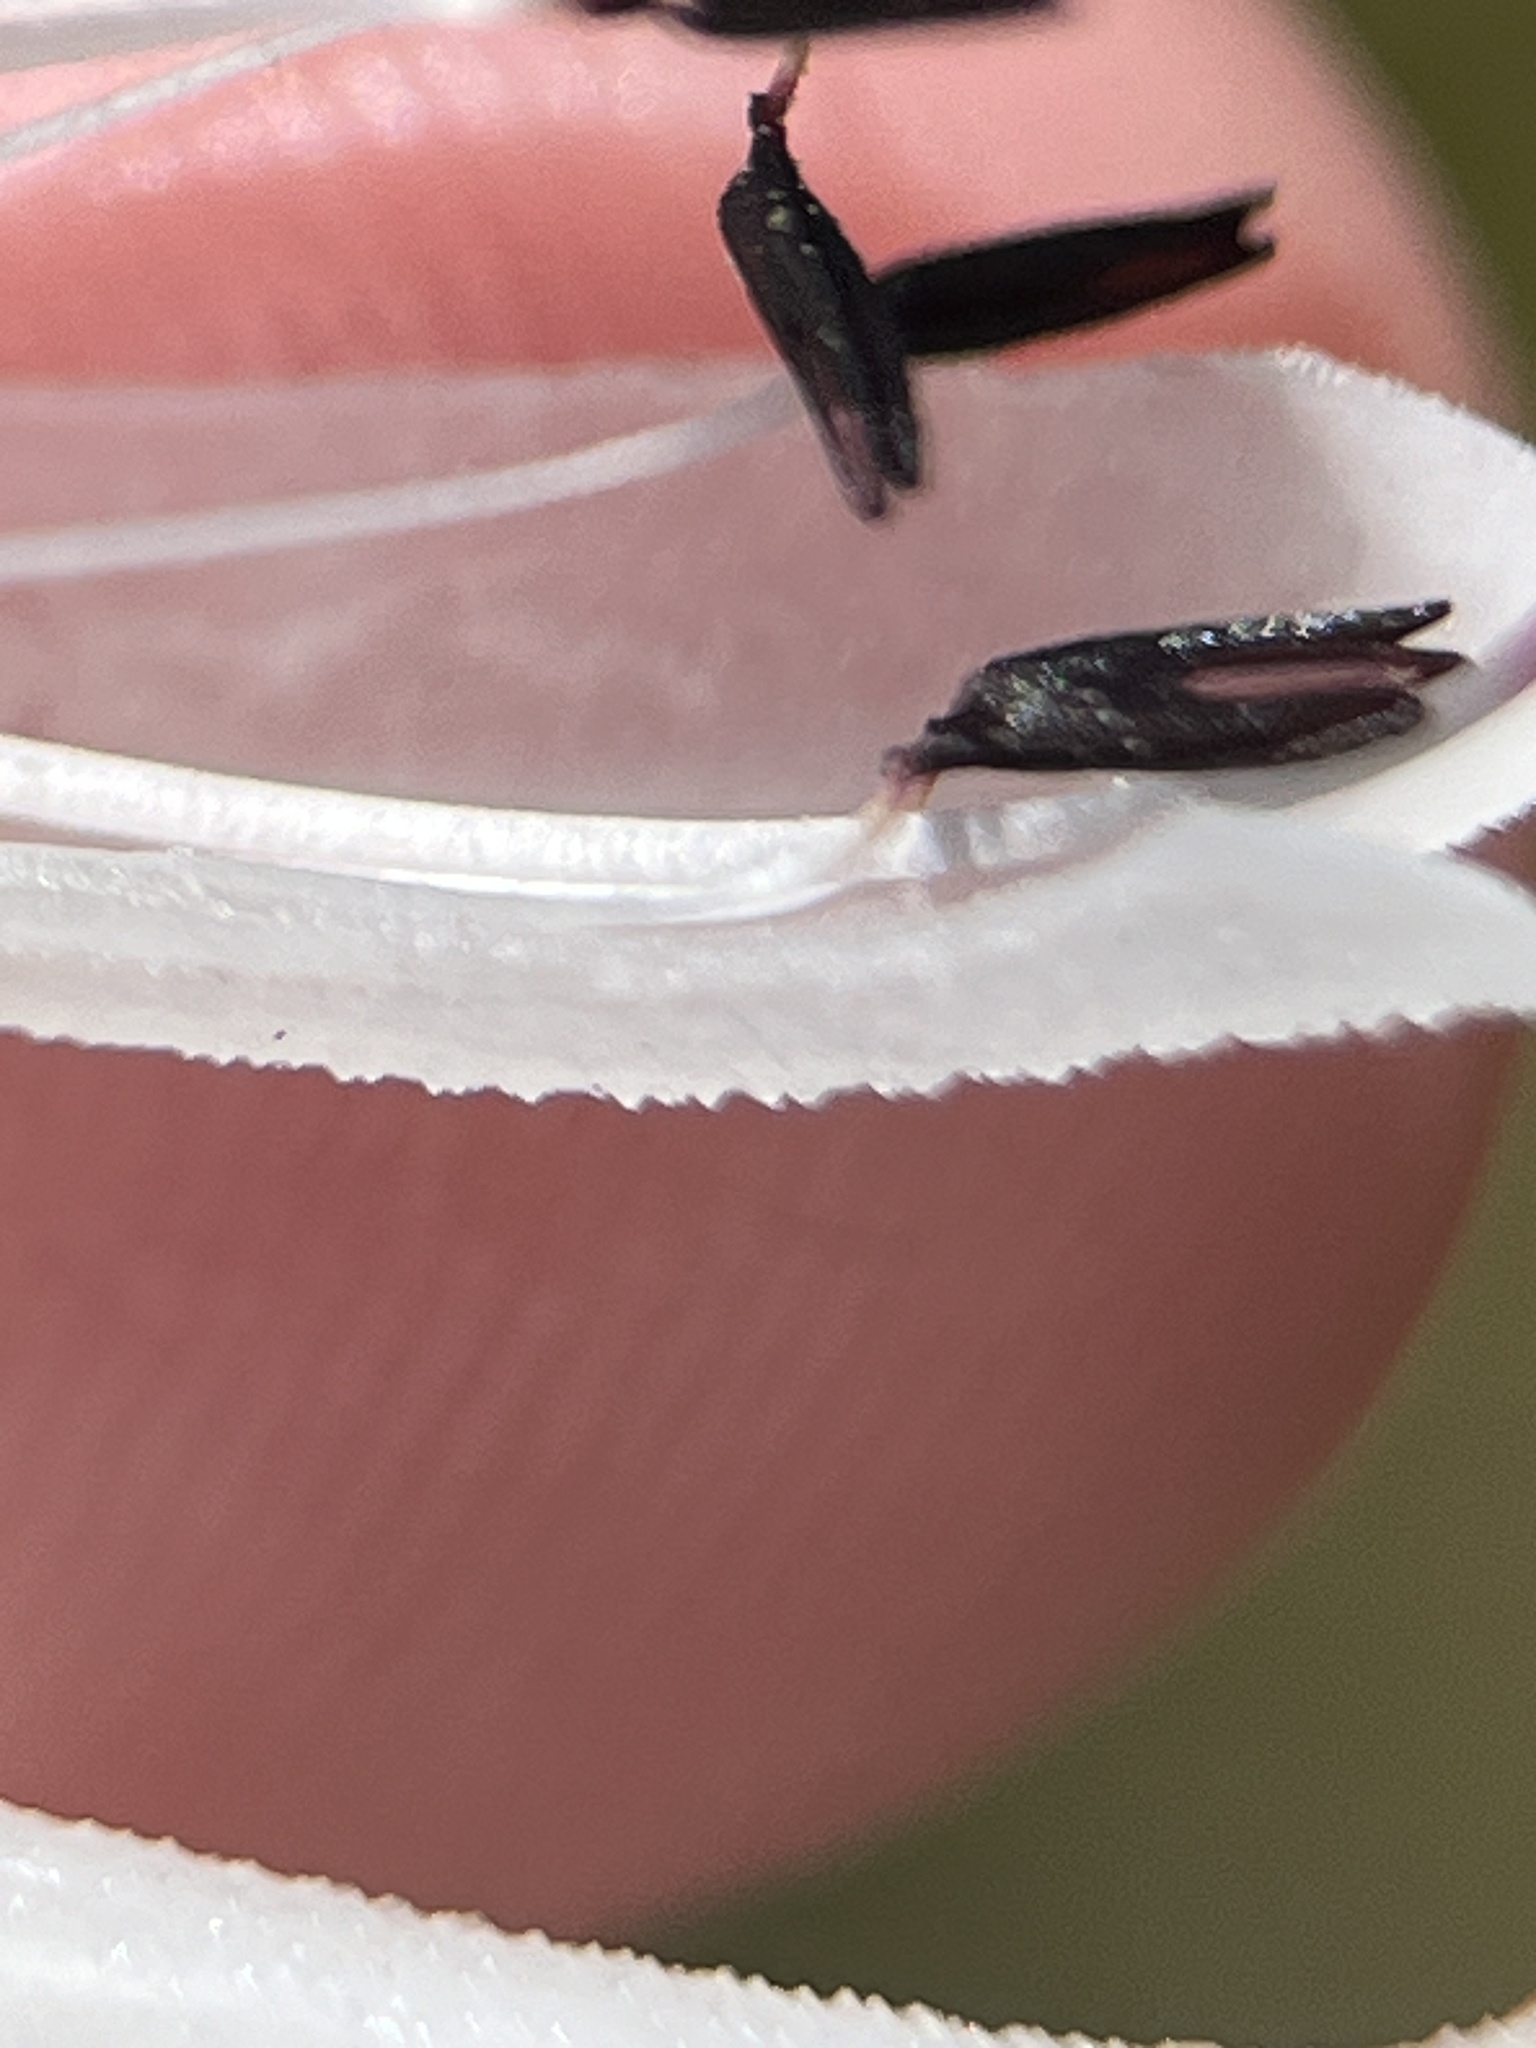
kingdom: Plantae
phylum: Tracheophyta
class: Magnoliopsida
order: Ericales
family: Ericaceae
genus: Erica
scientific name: Erica thomae
